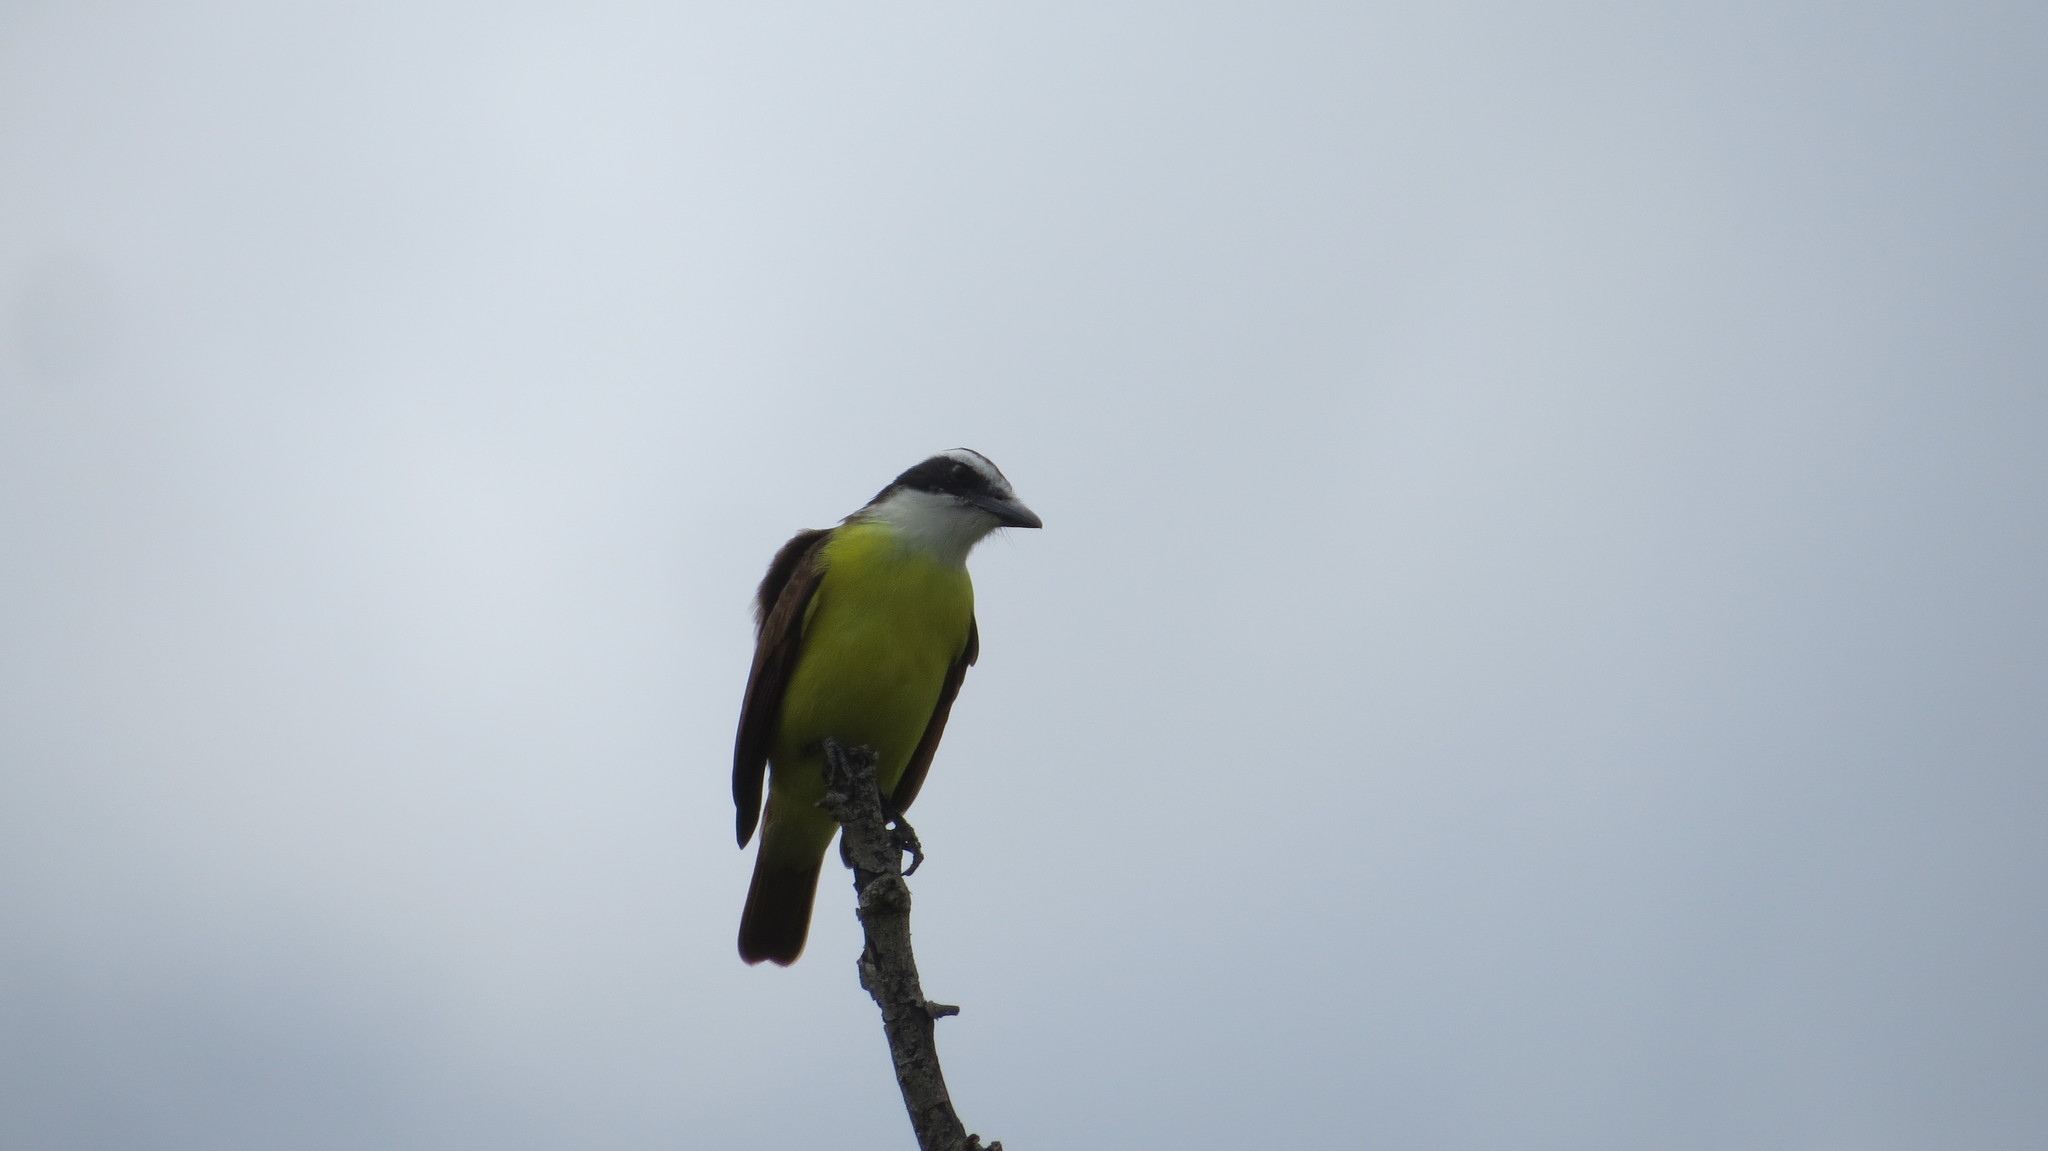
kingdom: Animalia
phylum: Chordata
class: Aves
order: Passeriformes
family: Tyrannidae
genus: Pitangus
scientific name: Pitangus sulphuratus
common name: Great kiskadee
